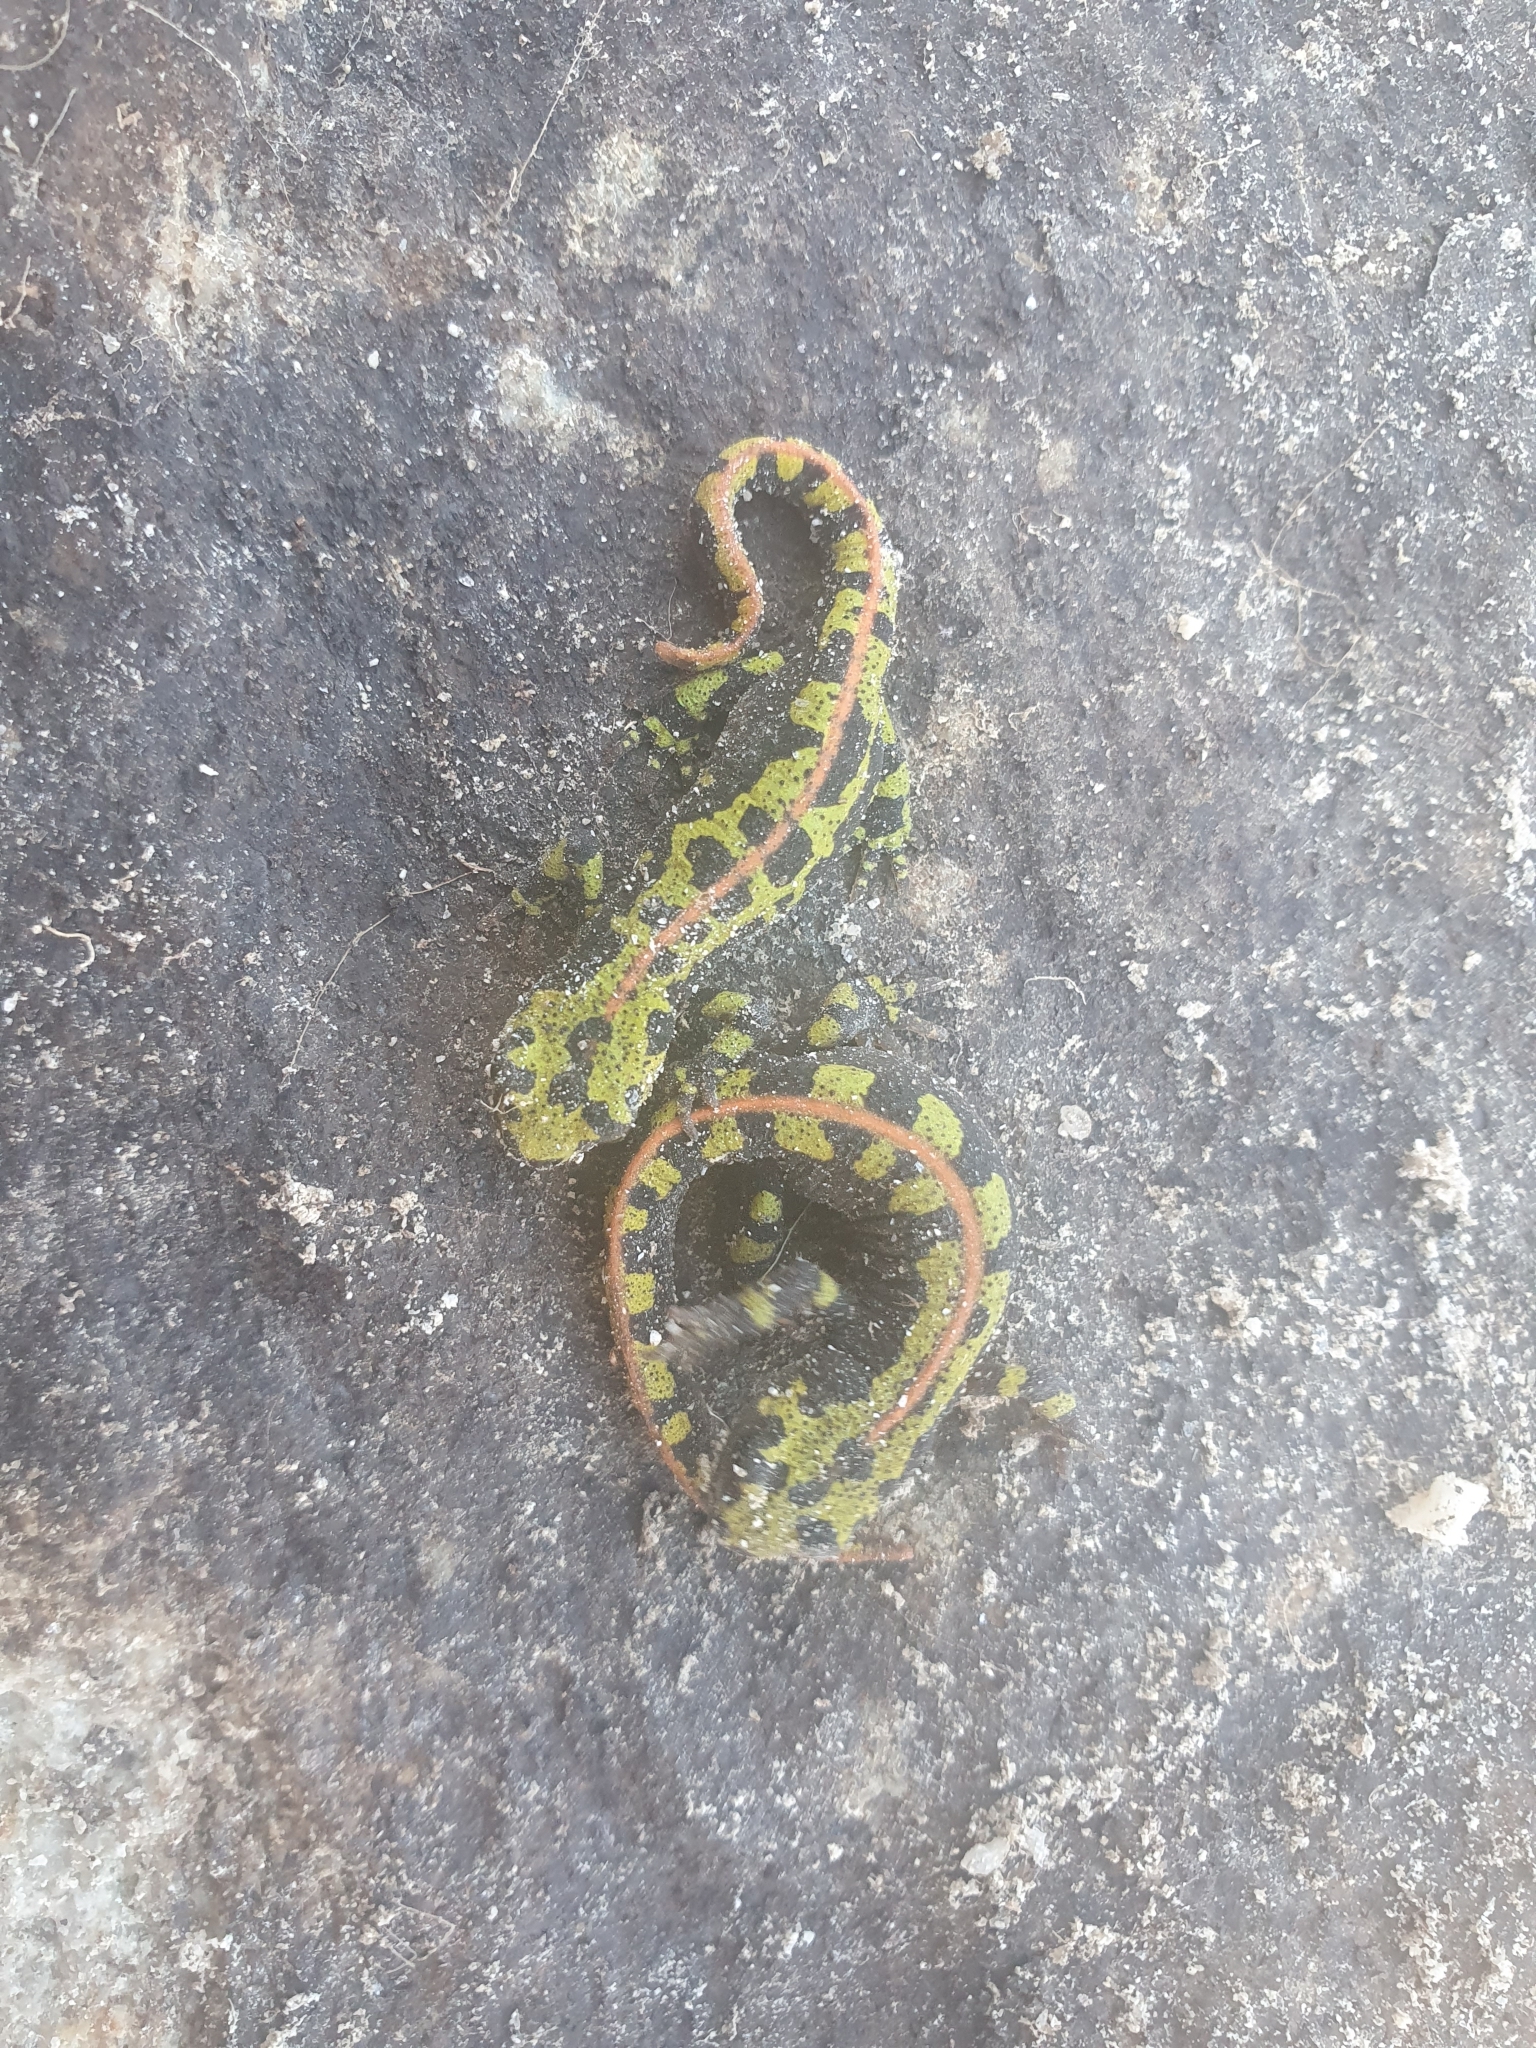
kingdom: Animalia
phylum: Chordata
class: Amphibia
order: Caudata
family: Salamandridae
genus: Triturus
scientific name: Triturus marmoratus
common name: Marbled newt
